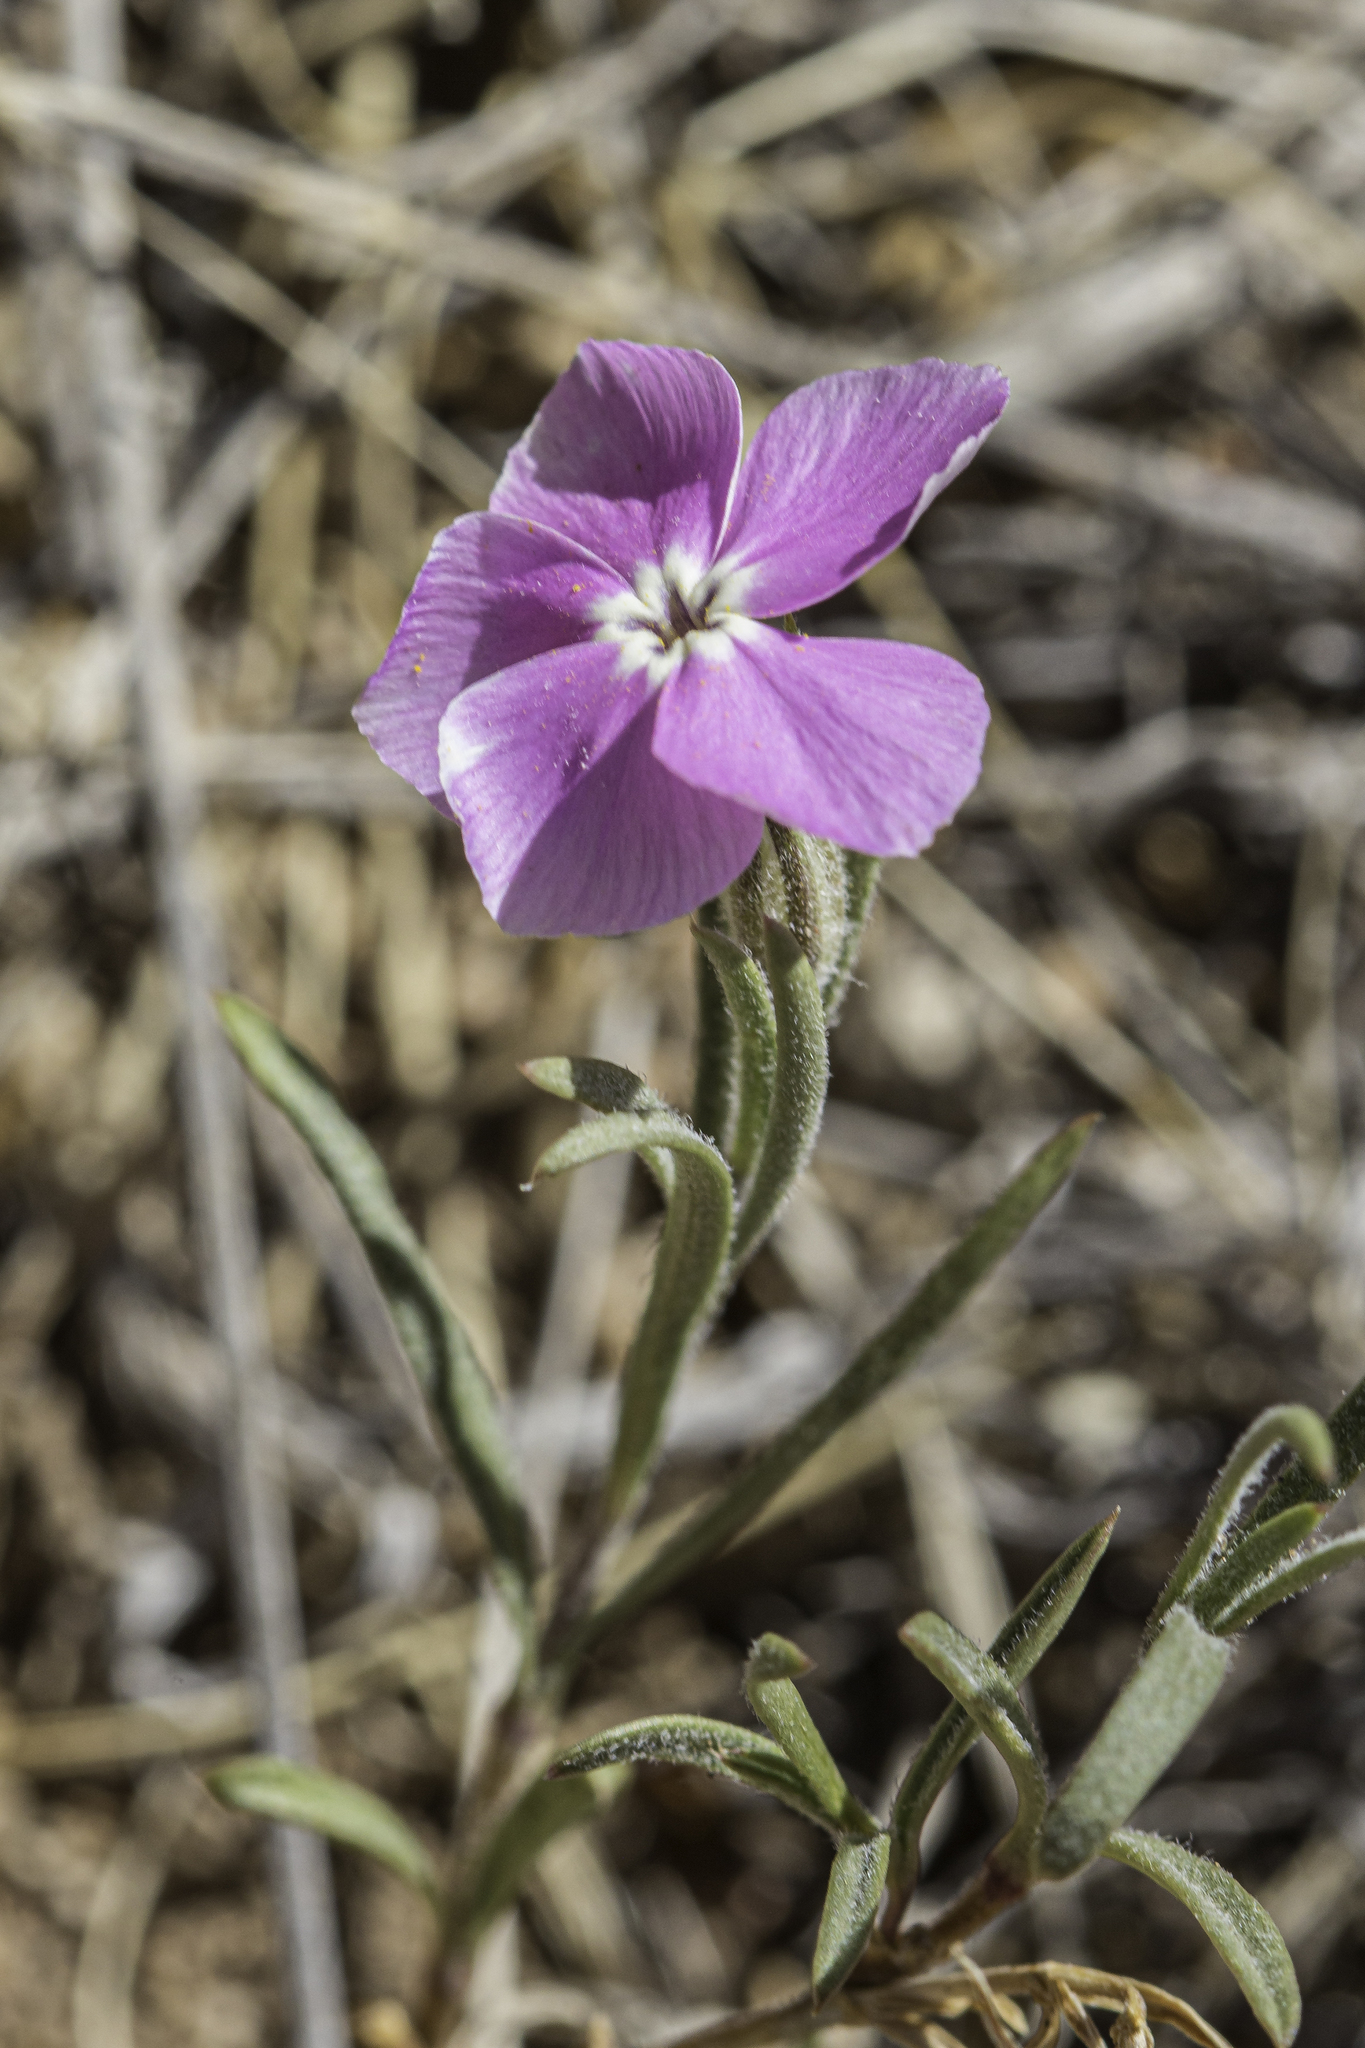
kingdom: Plantae
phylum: Tracheophyta
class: Magnoliopsida
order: Ericales
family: Polemoniaceae
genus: Phlox
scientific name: Phlox nana
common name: Santa fe phlox
